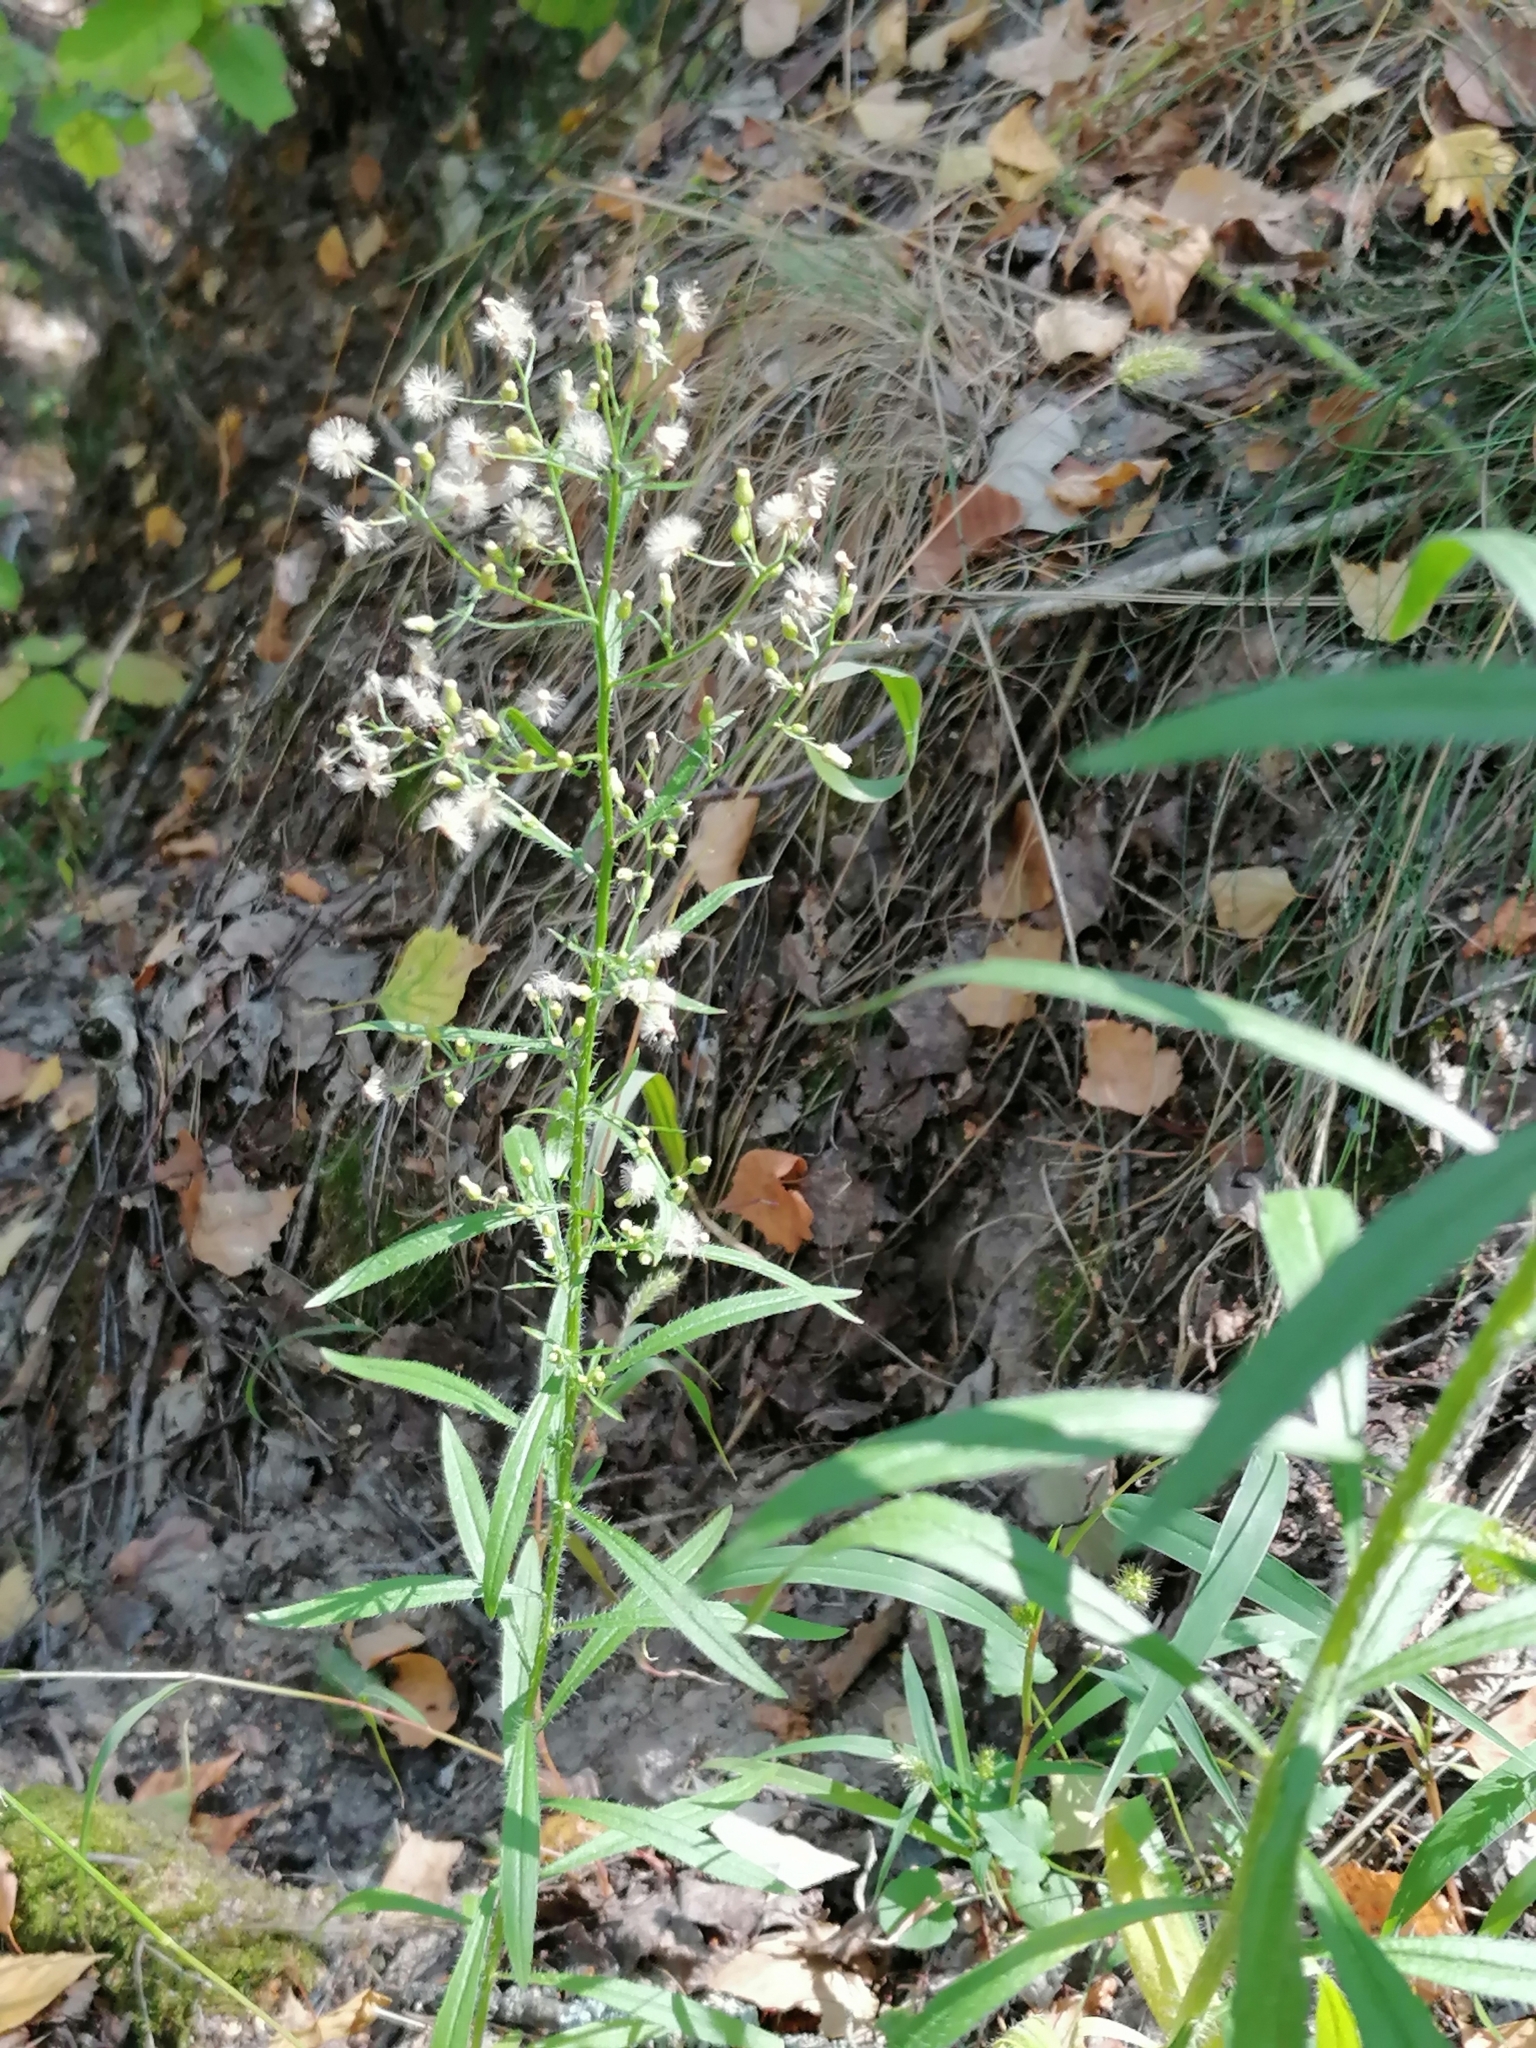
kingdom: Plantae
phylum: Tracheophyta
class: Magnoliopsida
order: Asterales
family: Asteraceae
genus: Erigeron
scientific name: Erigeron canadensis
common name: Canadian fleabane
